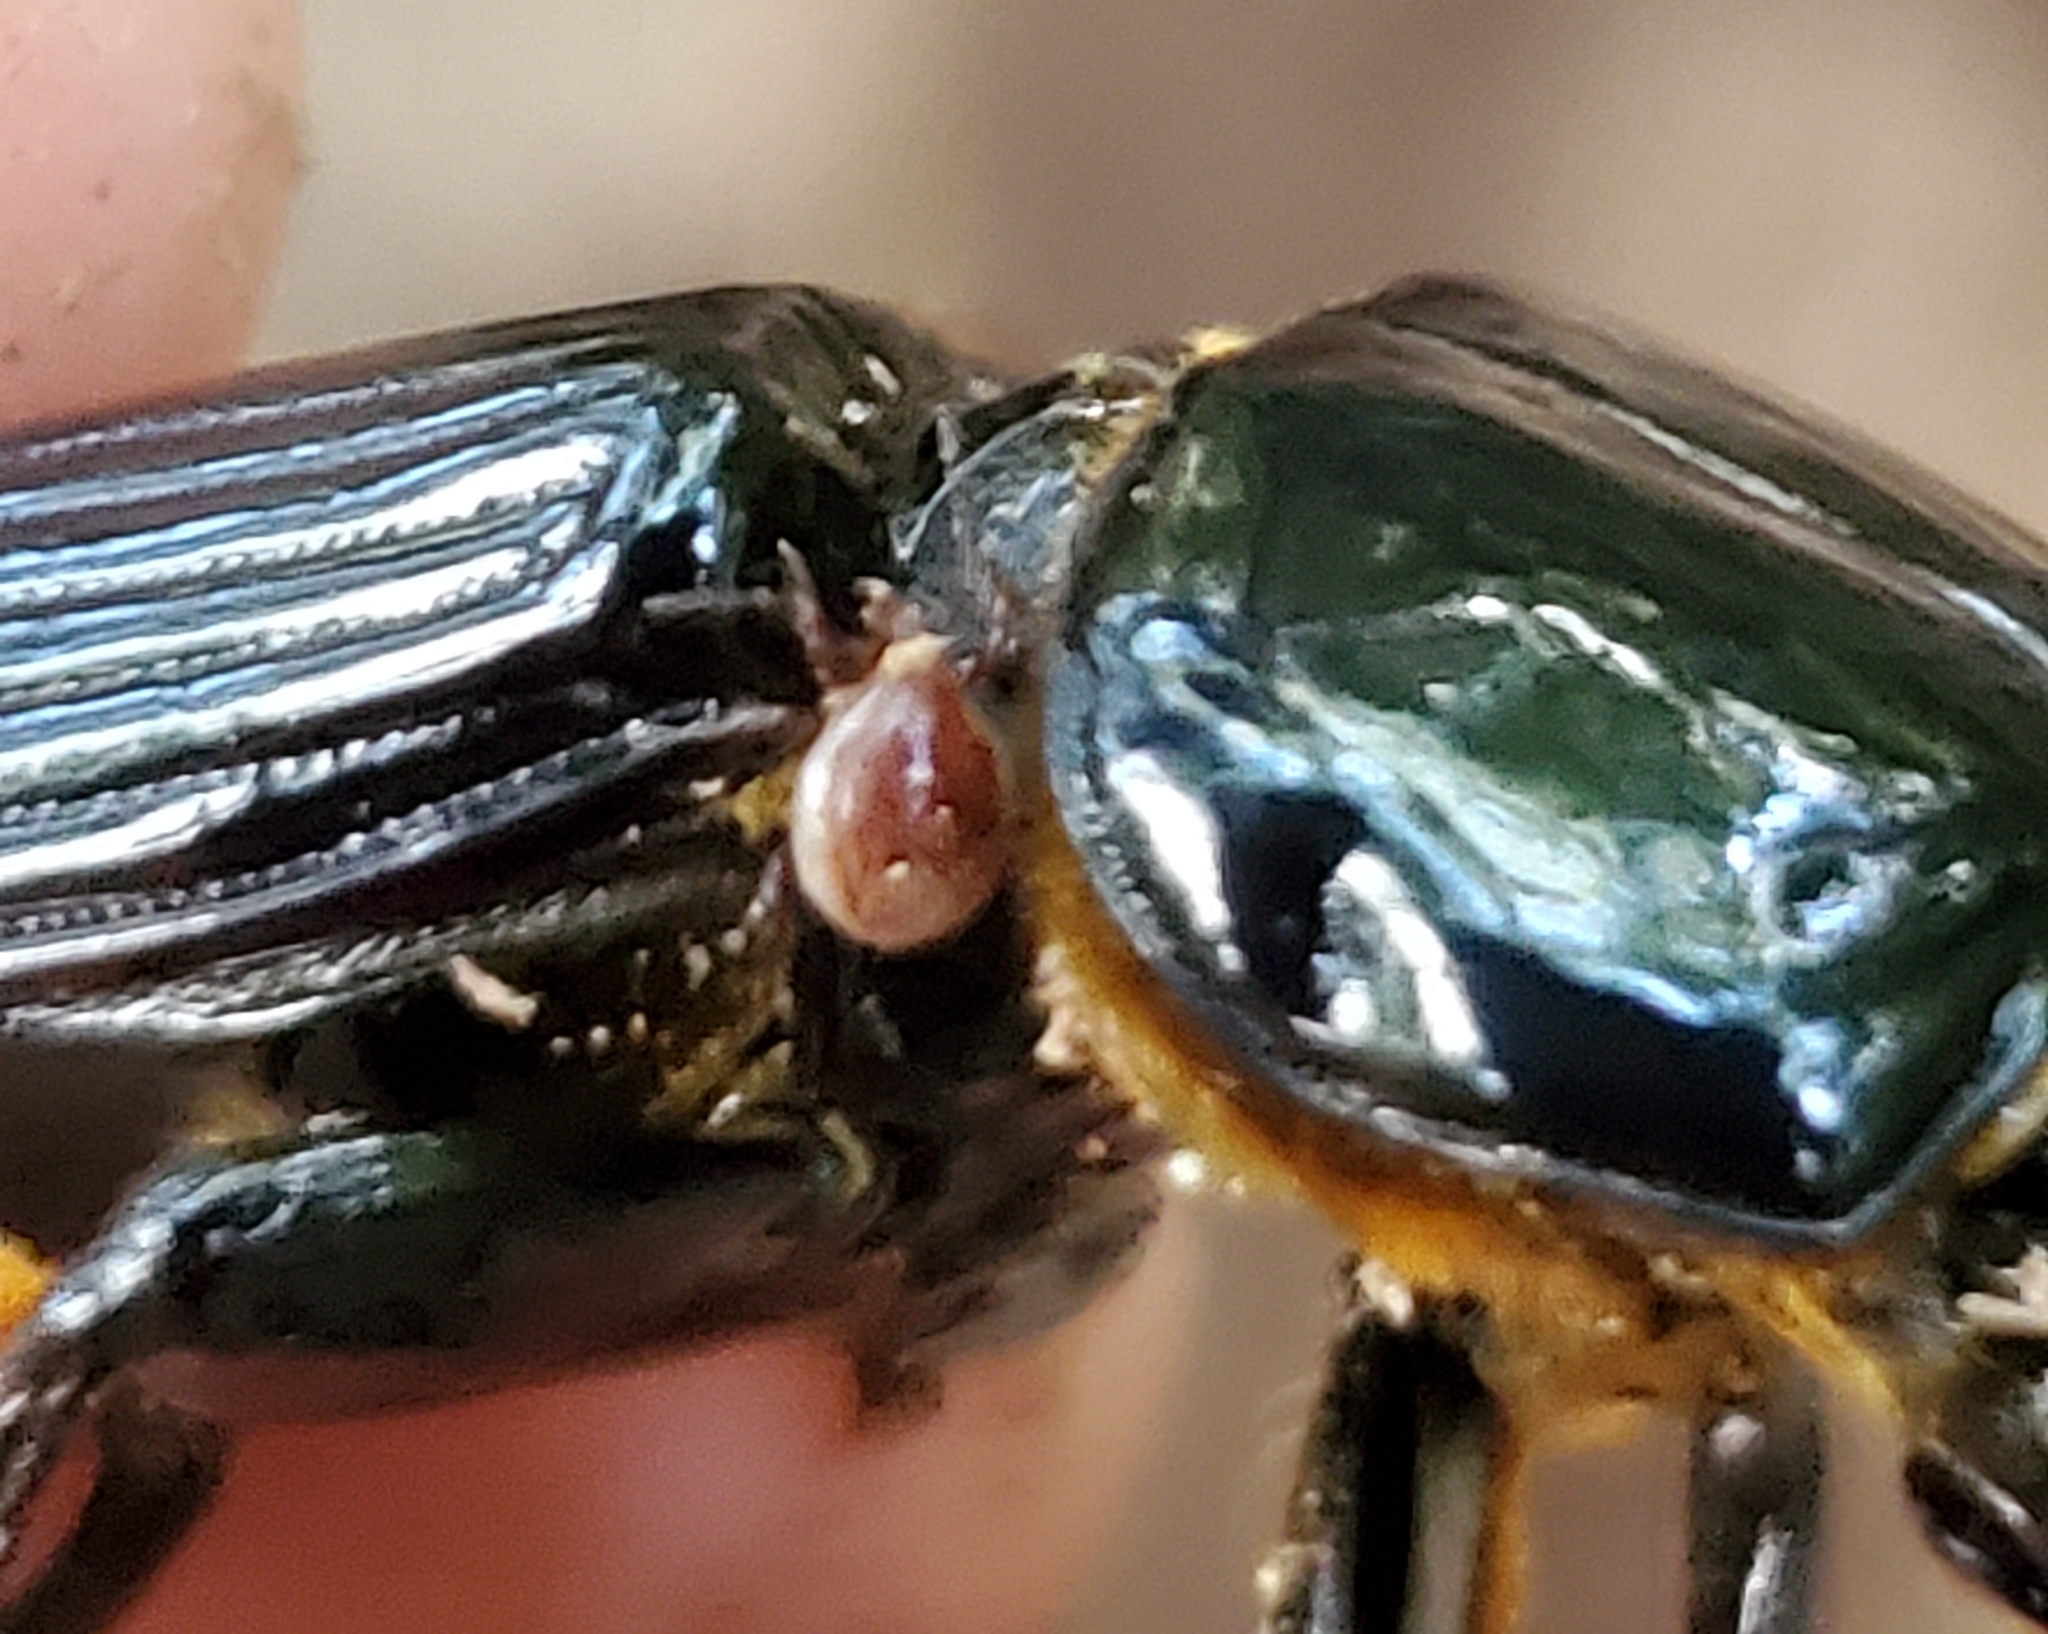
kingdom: Animalia
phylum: Arthropoda
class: Insecta
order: Coleoptera
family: Passalidae
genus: Odontotaenius
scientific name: Odontotaenius disjunctus
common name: Patent leather beetle
